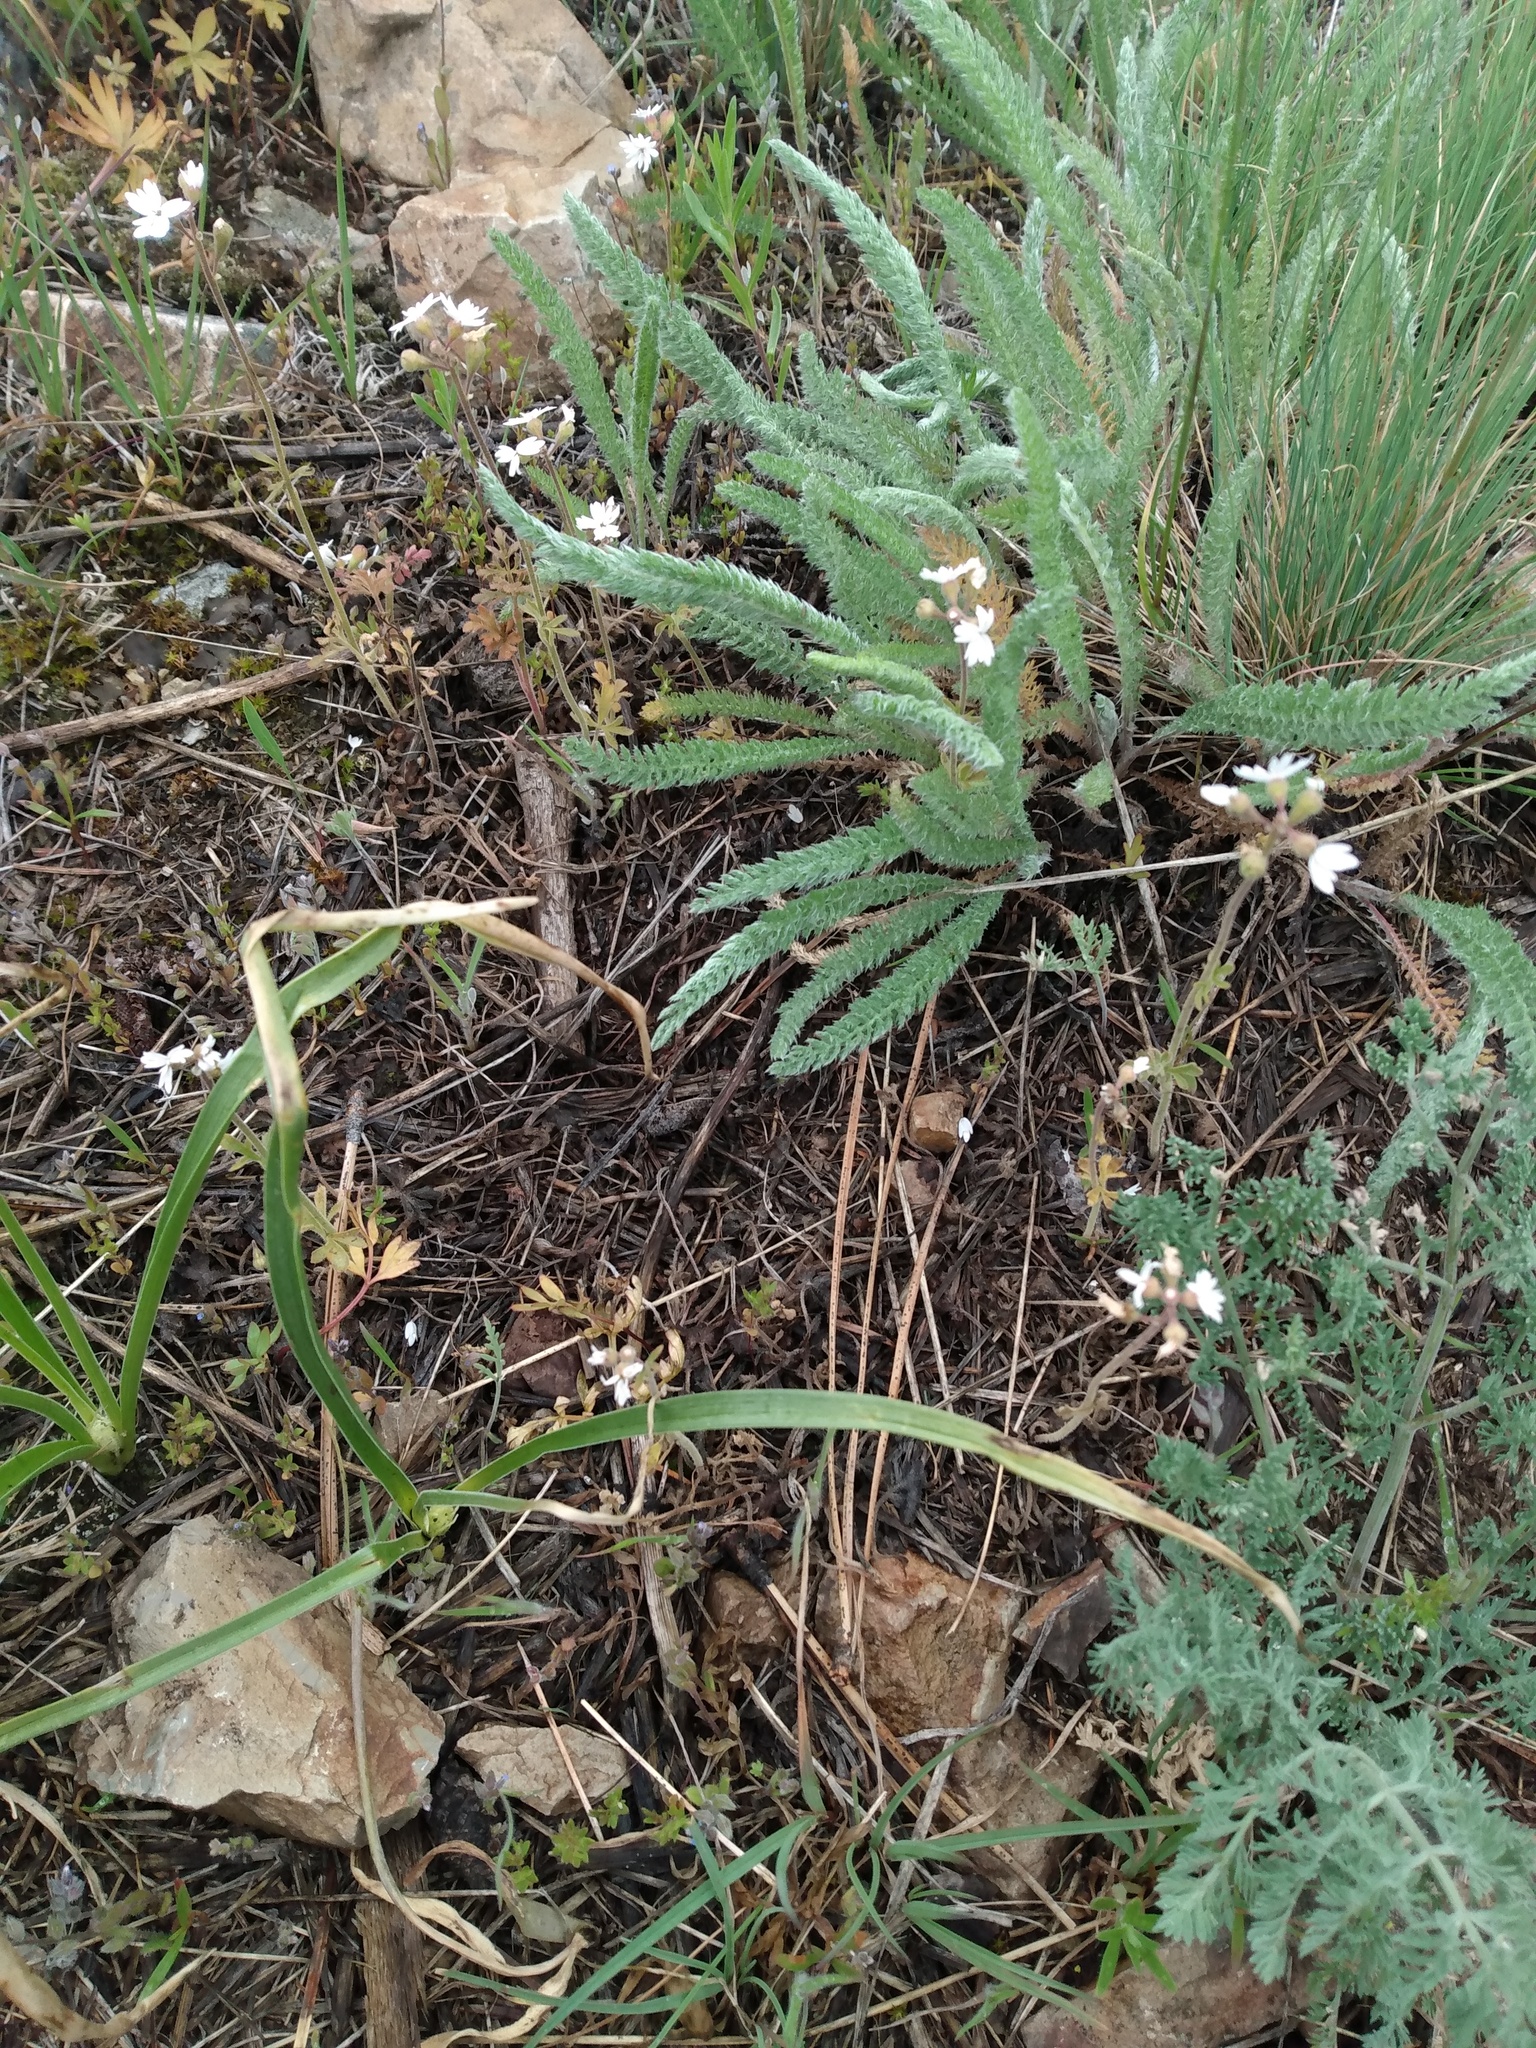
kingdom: Plantae
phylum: Tracheophyta
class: Magnoliopsida
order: Saxifragales
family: Saxifragaceae
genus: Lithophragma
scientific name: Lithophragma parviflorum
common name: Small-flowered fringe-cup
